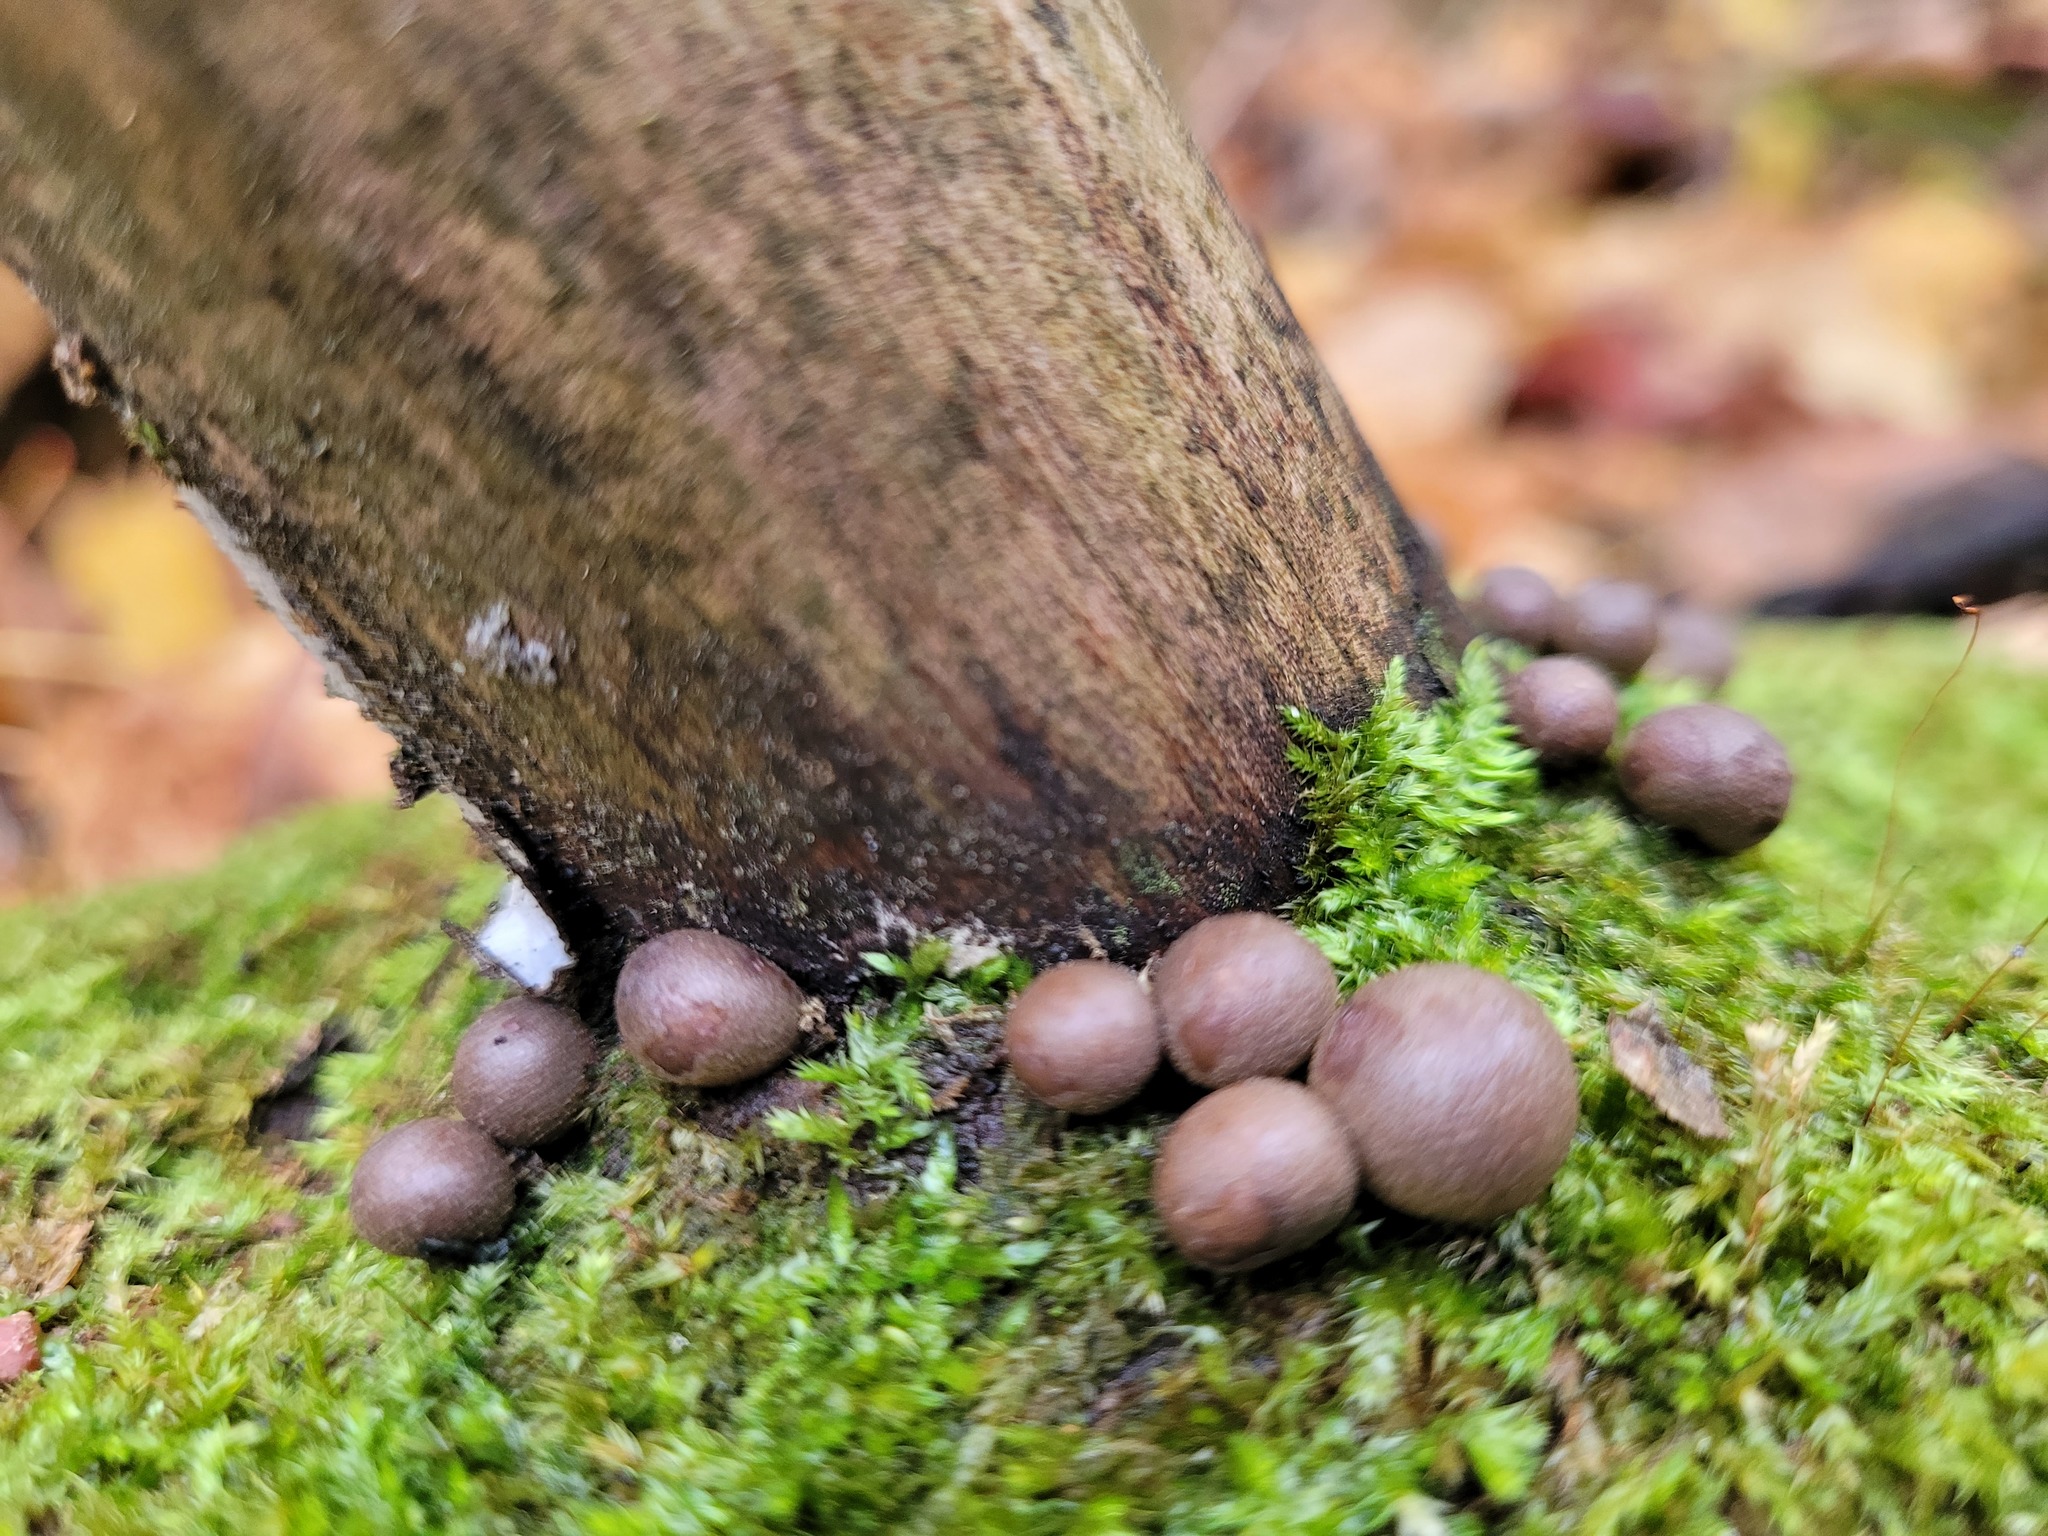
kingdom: Protozoa
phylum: Mycetozoa
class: Myxomycetes
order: Cribrariales
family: Tubiferaceae
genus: Lycogala
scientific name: Lycogala epidendrum
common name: Wolf's milk
